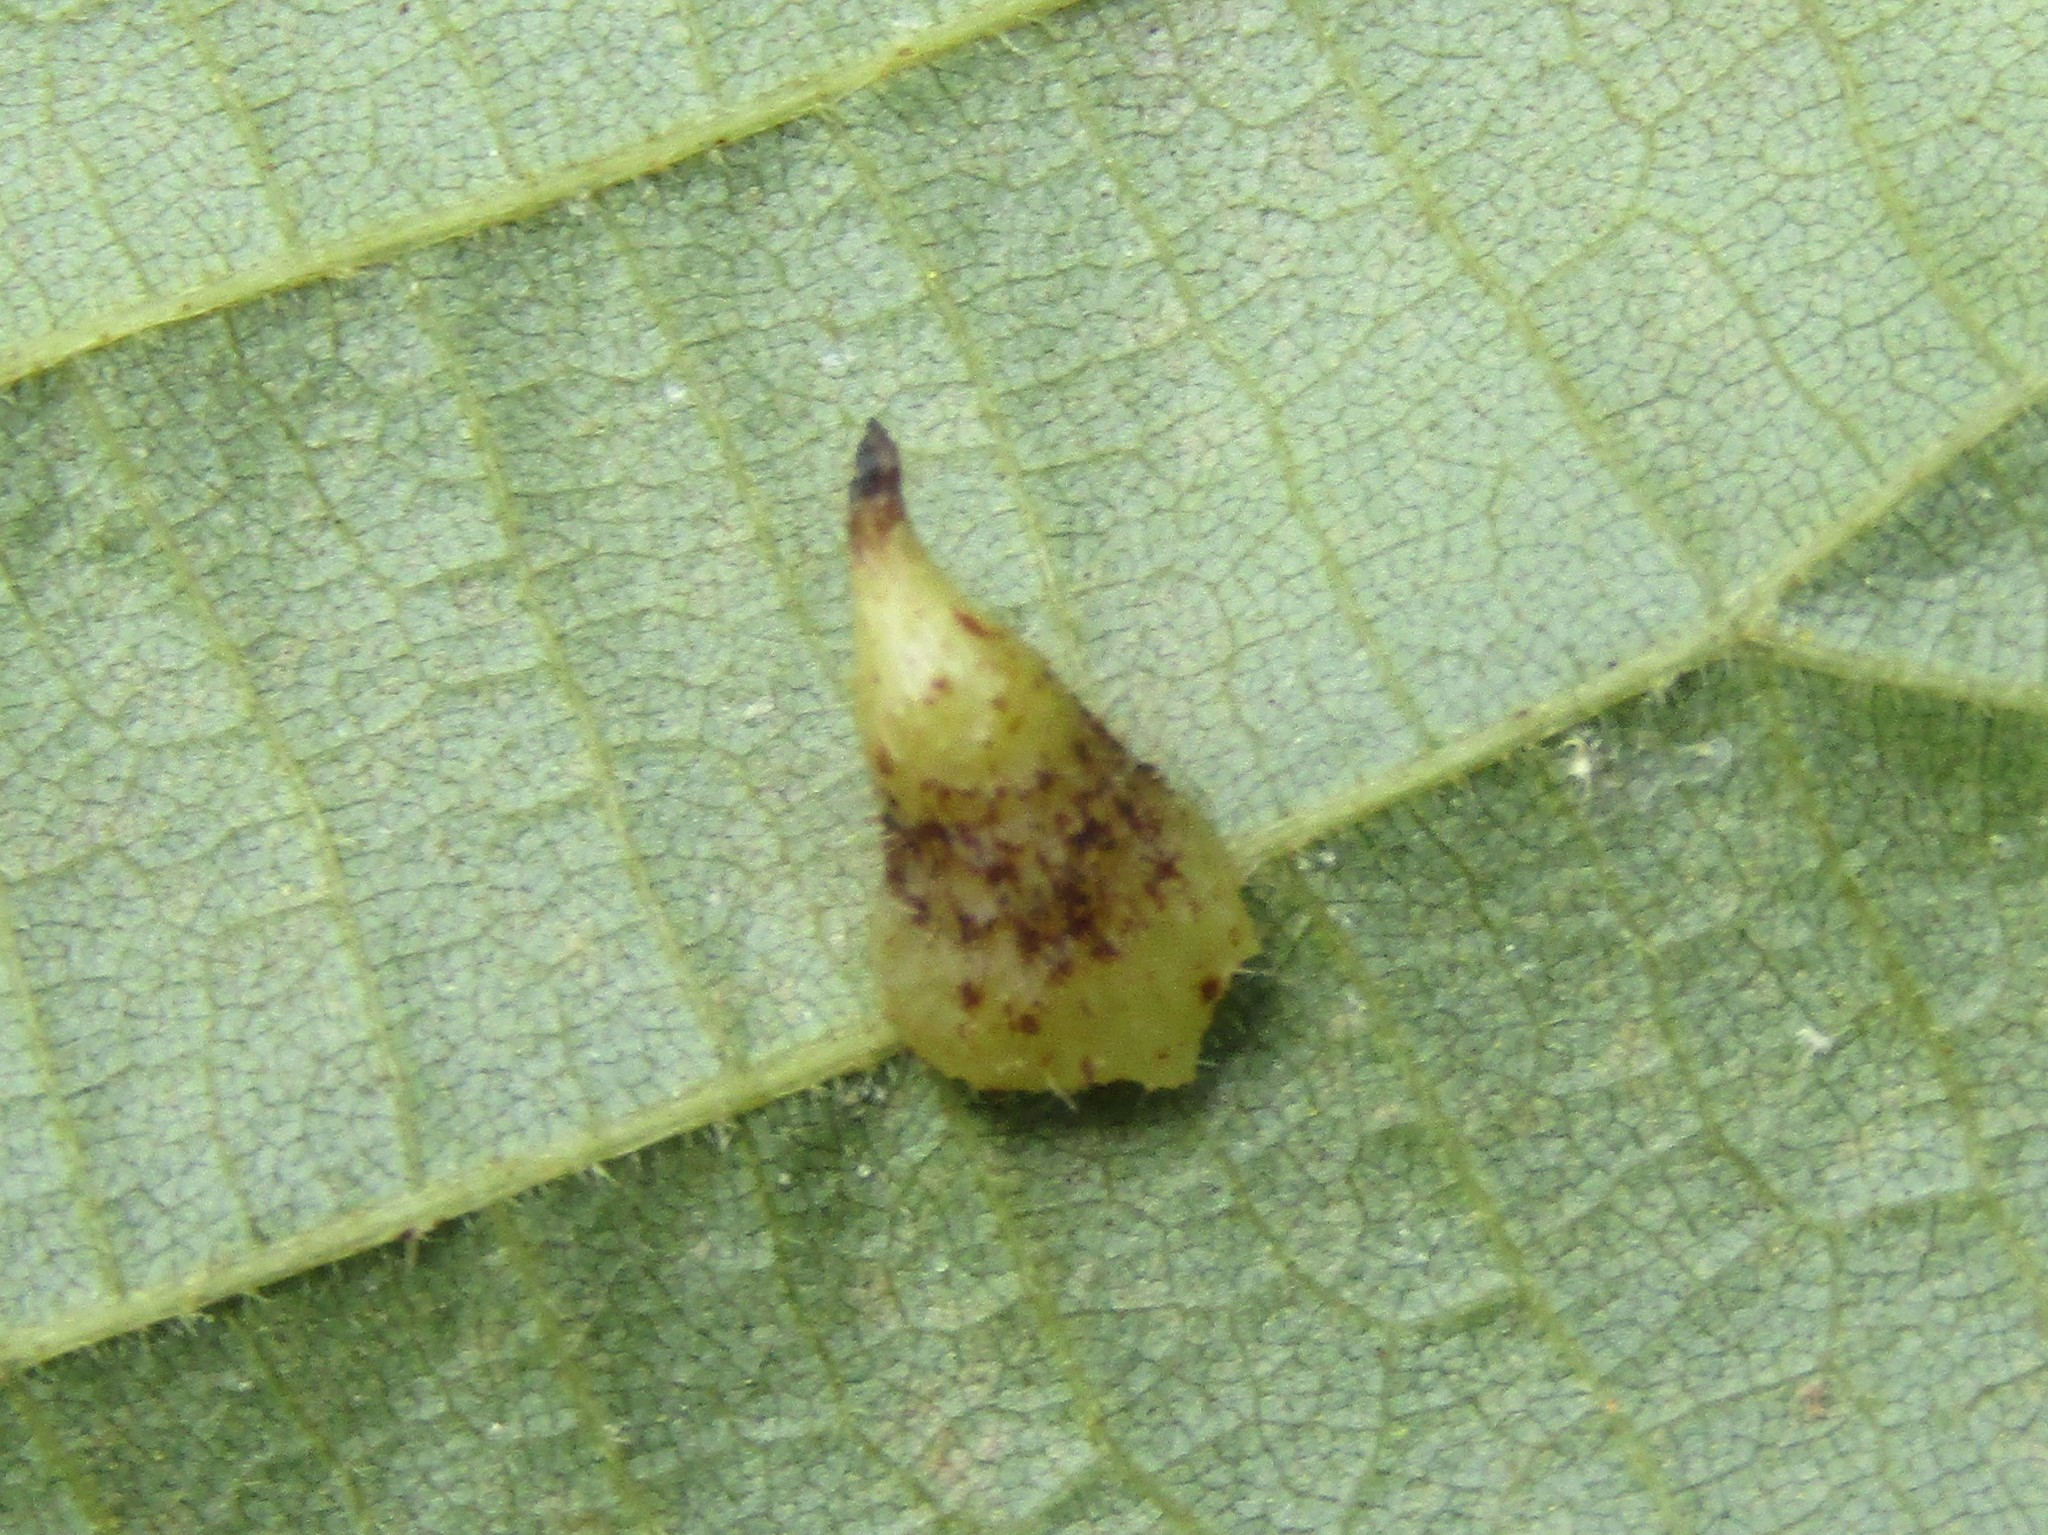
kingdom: Animalia
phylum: Arthropoda
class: Insecta
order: Diptera
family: Cecidomyiidae
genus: Caryomyia
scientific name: Caryomyia inclinata
